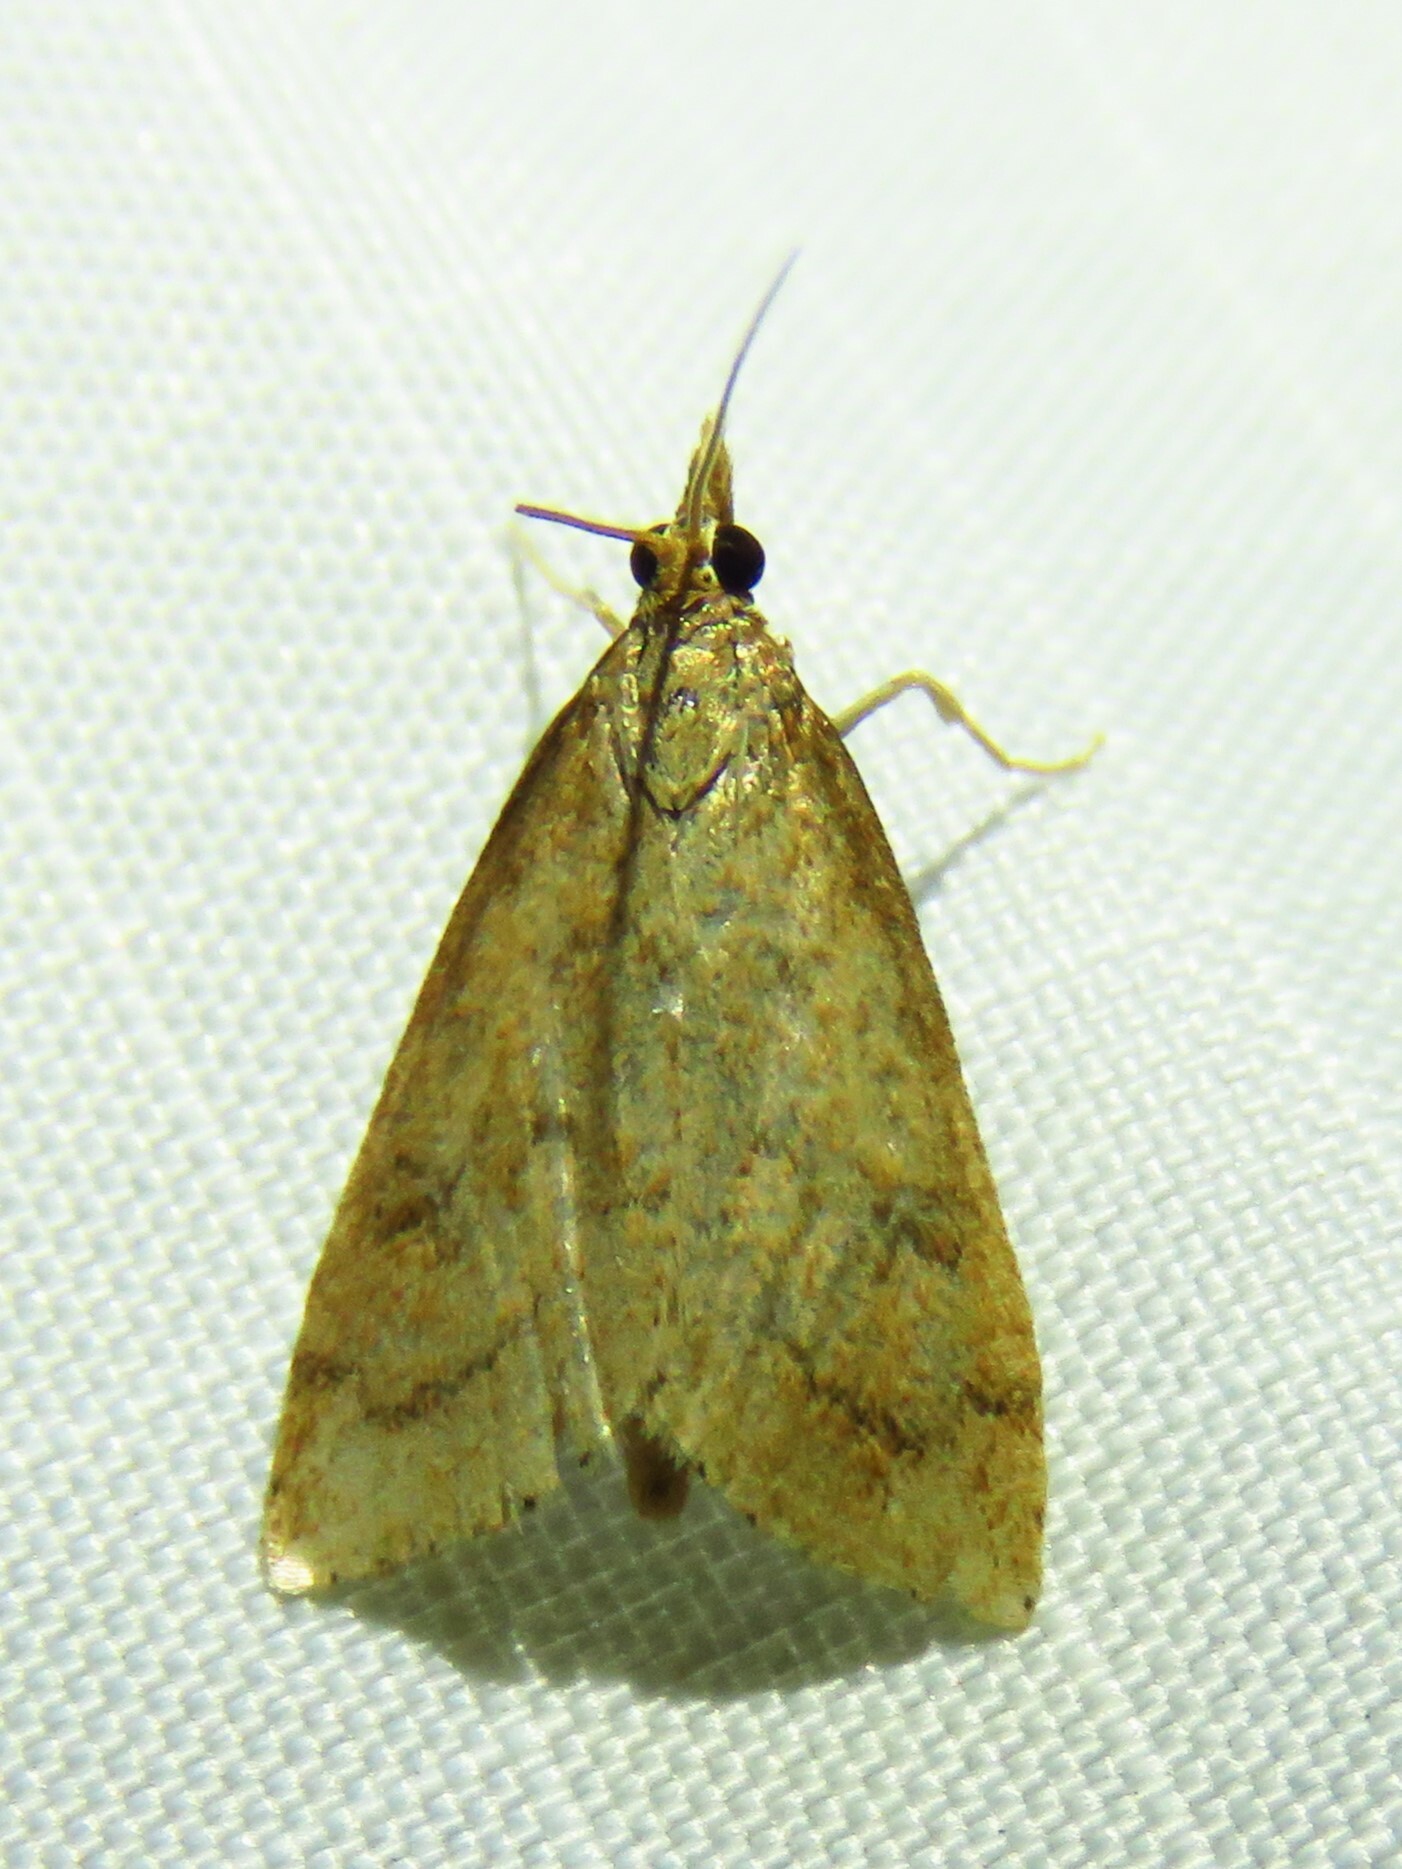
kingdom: Animalia
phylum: Arthropoda
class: Insecta
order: Lepidoptera
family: Crambidae
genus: Udea
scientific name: Udea rubigalis
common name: Celery leaftier moth
